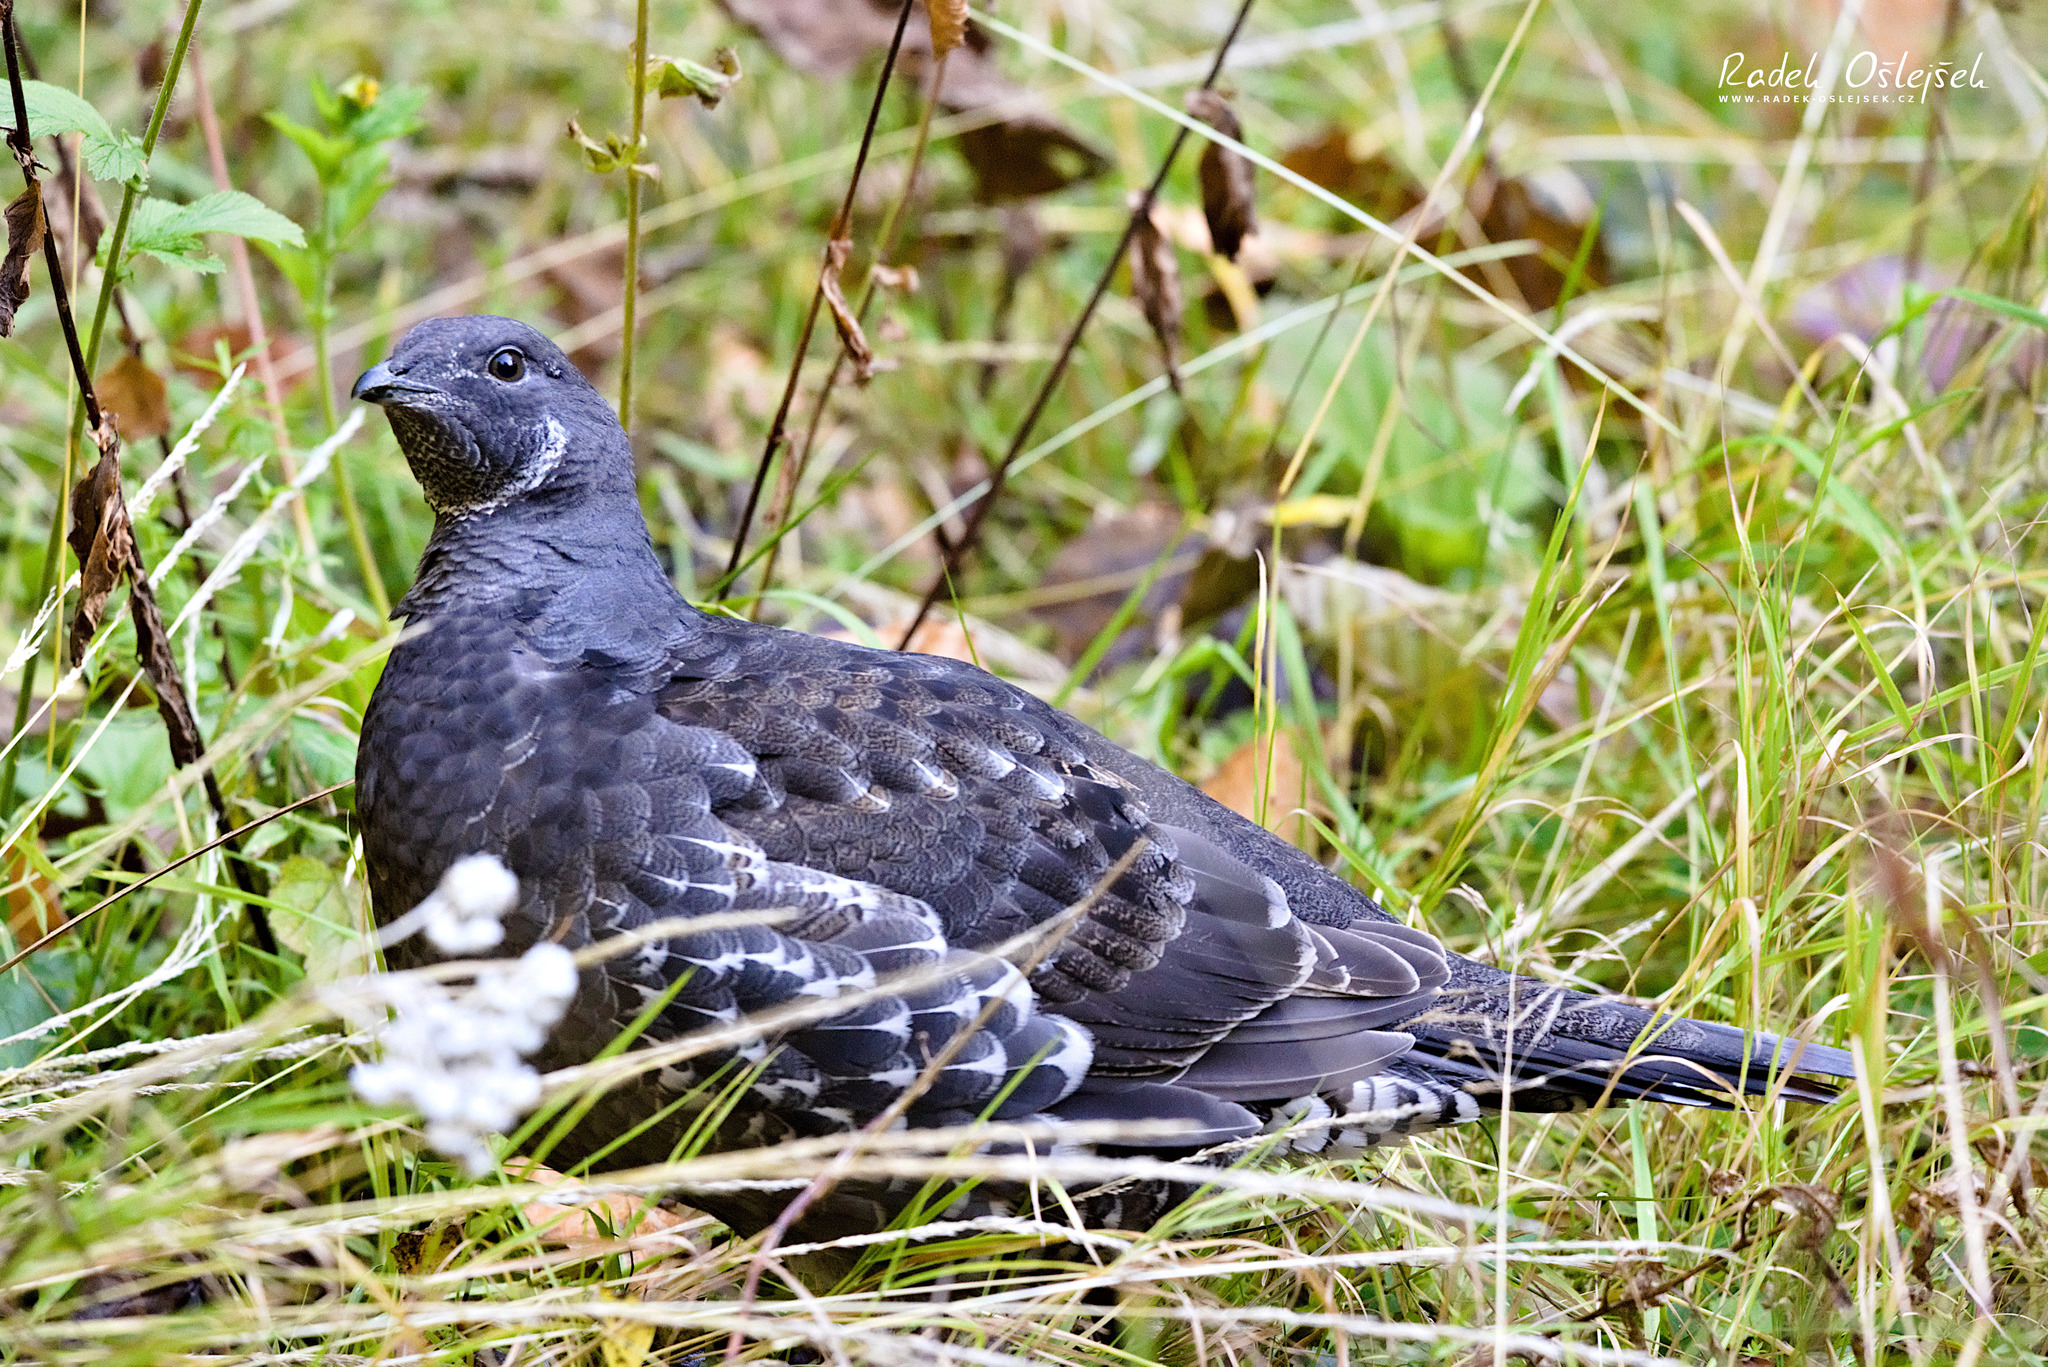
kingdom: Animalia
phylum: Chordata
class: Aves
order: Galliformes
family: Phasianidae
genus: Dendragapus
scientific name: Dendragapus obscurus
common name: Dusky grouse
